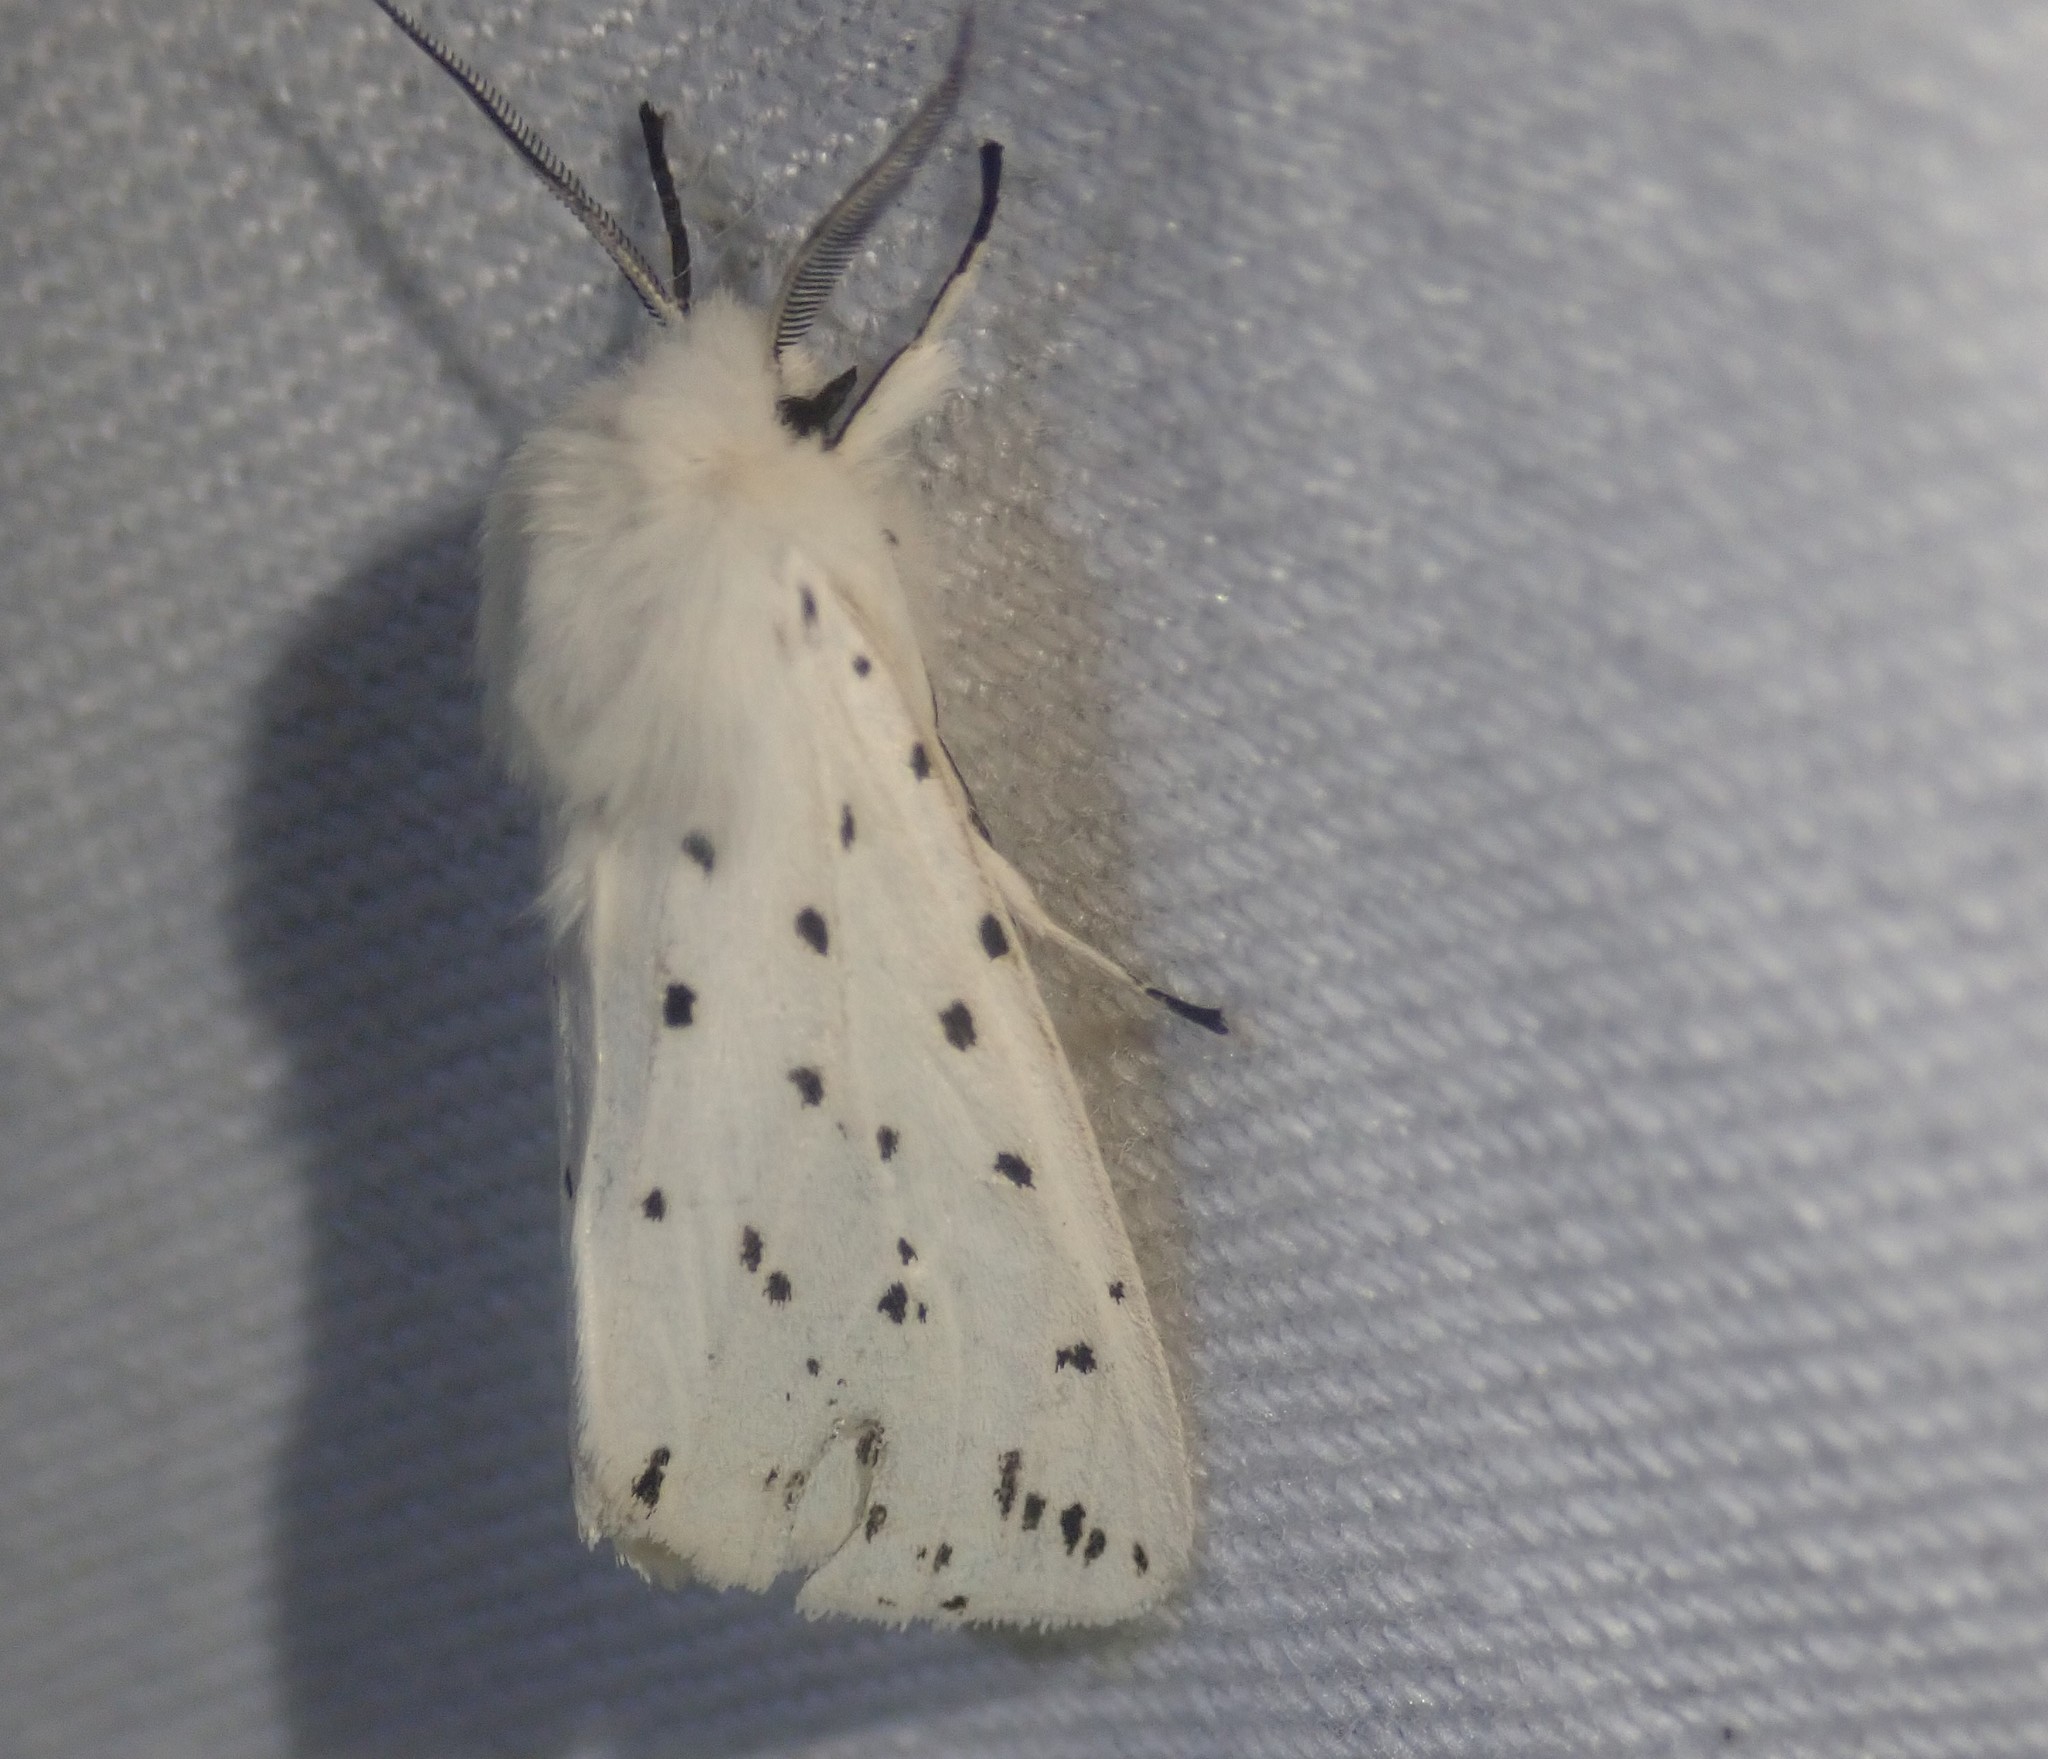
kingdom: Animalia
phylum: Arthropoda
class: Insecta
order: Lepidoptera
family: Erebidae
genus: Spilosoma
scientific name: Spilosoma lubricipeda
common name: White ermine
